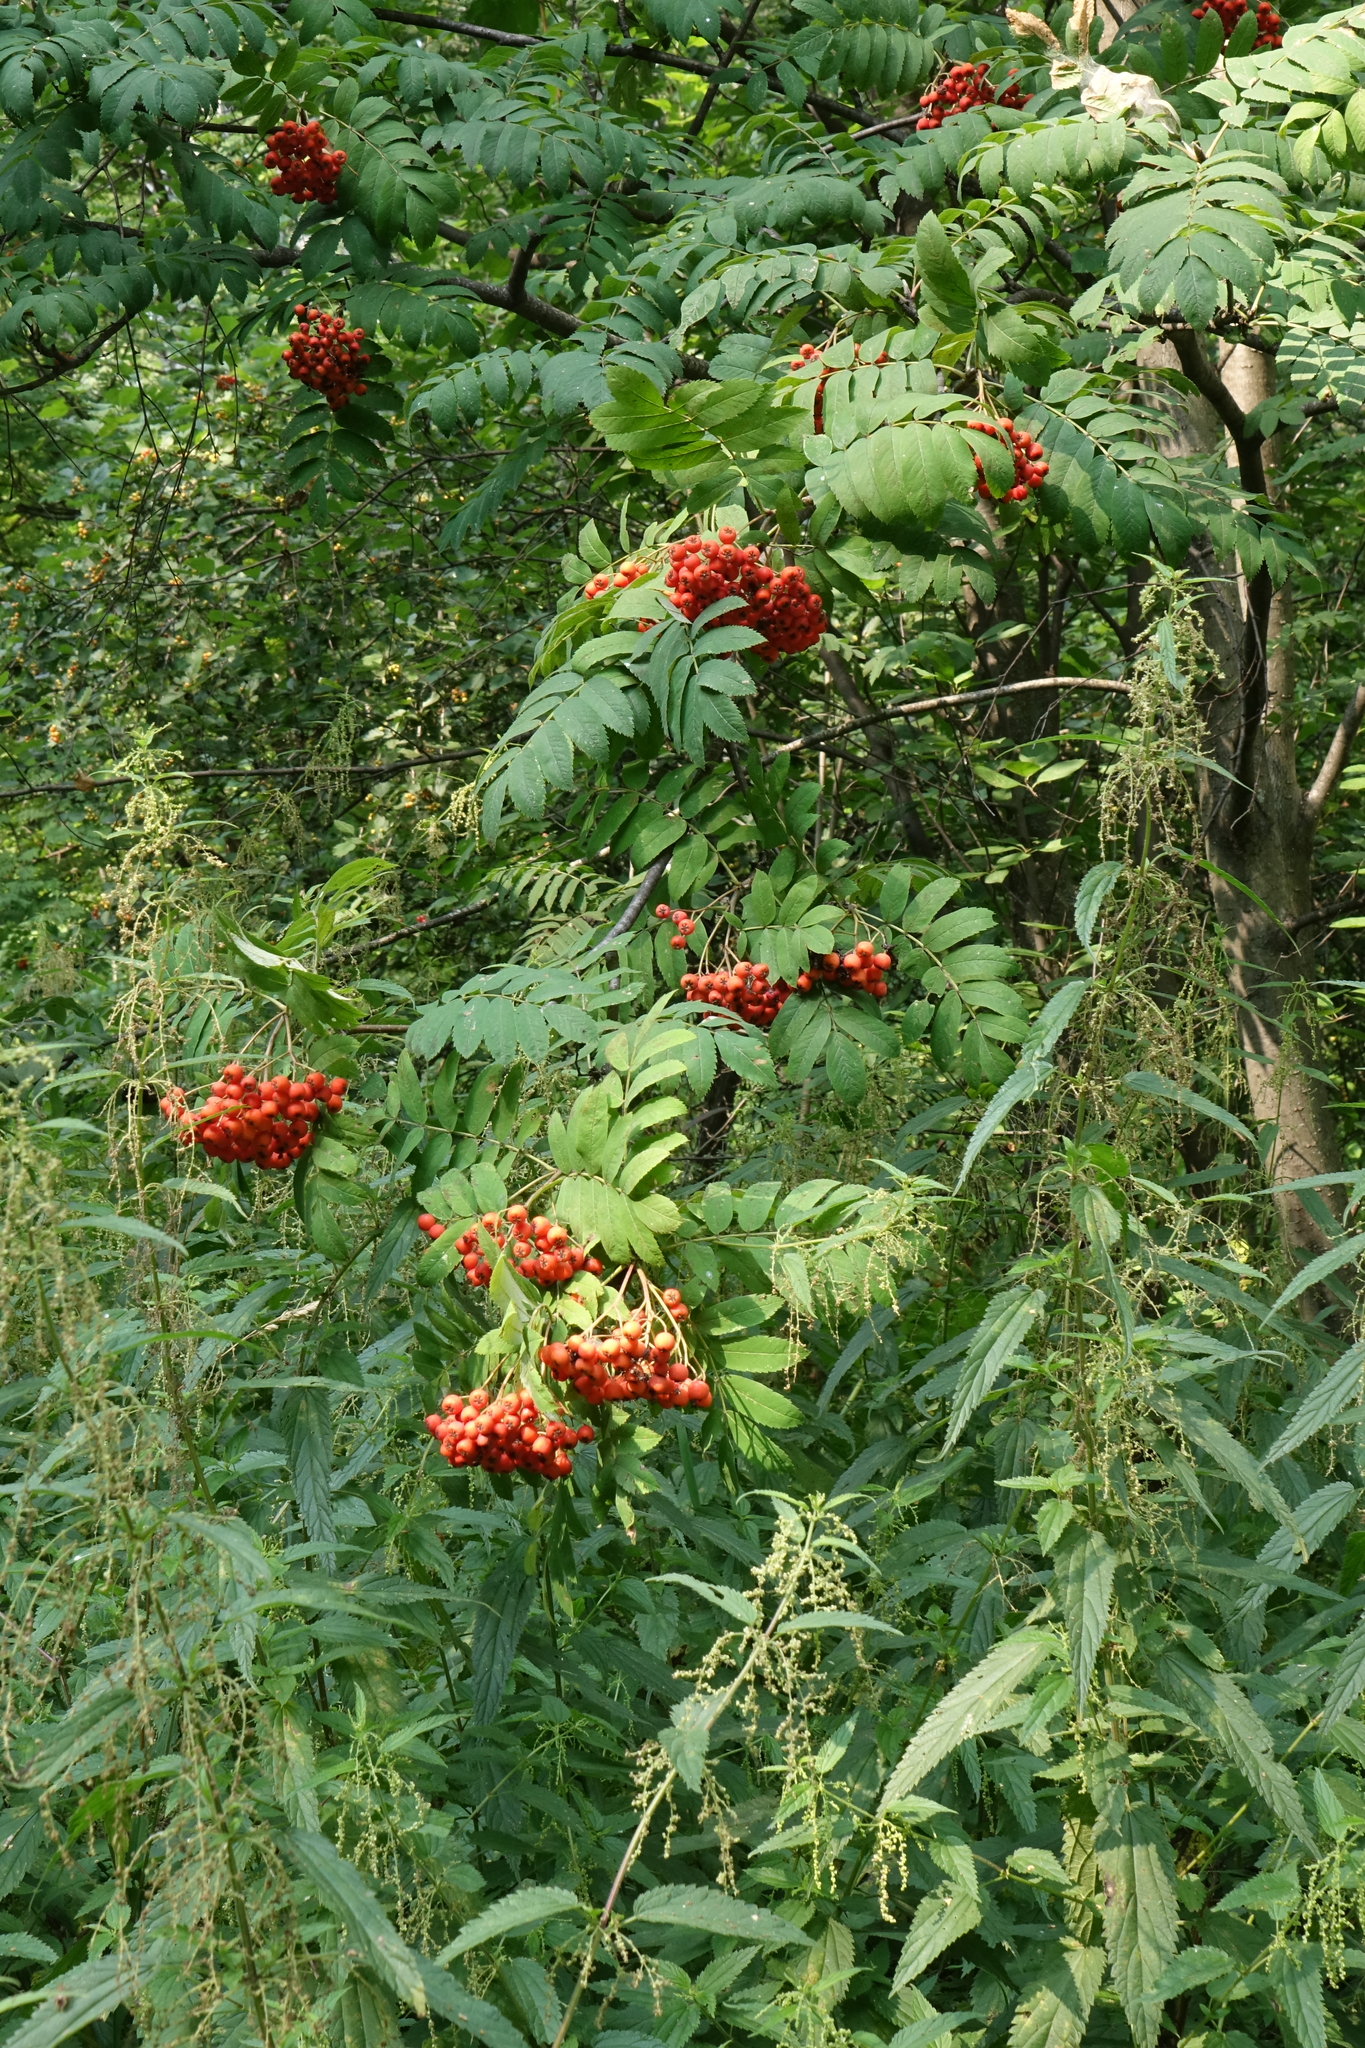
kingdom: Plantae
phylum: Tracheophyta
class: Magnoliopsida
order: Rosales
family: Rosaceae
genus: Sorbus
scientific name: Sorbus aucuparia
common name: Rowan
